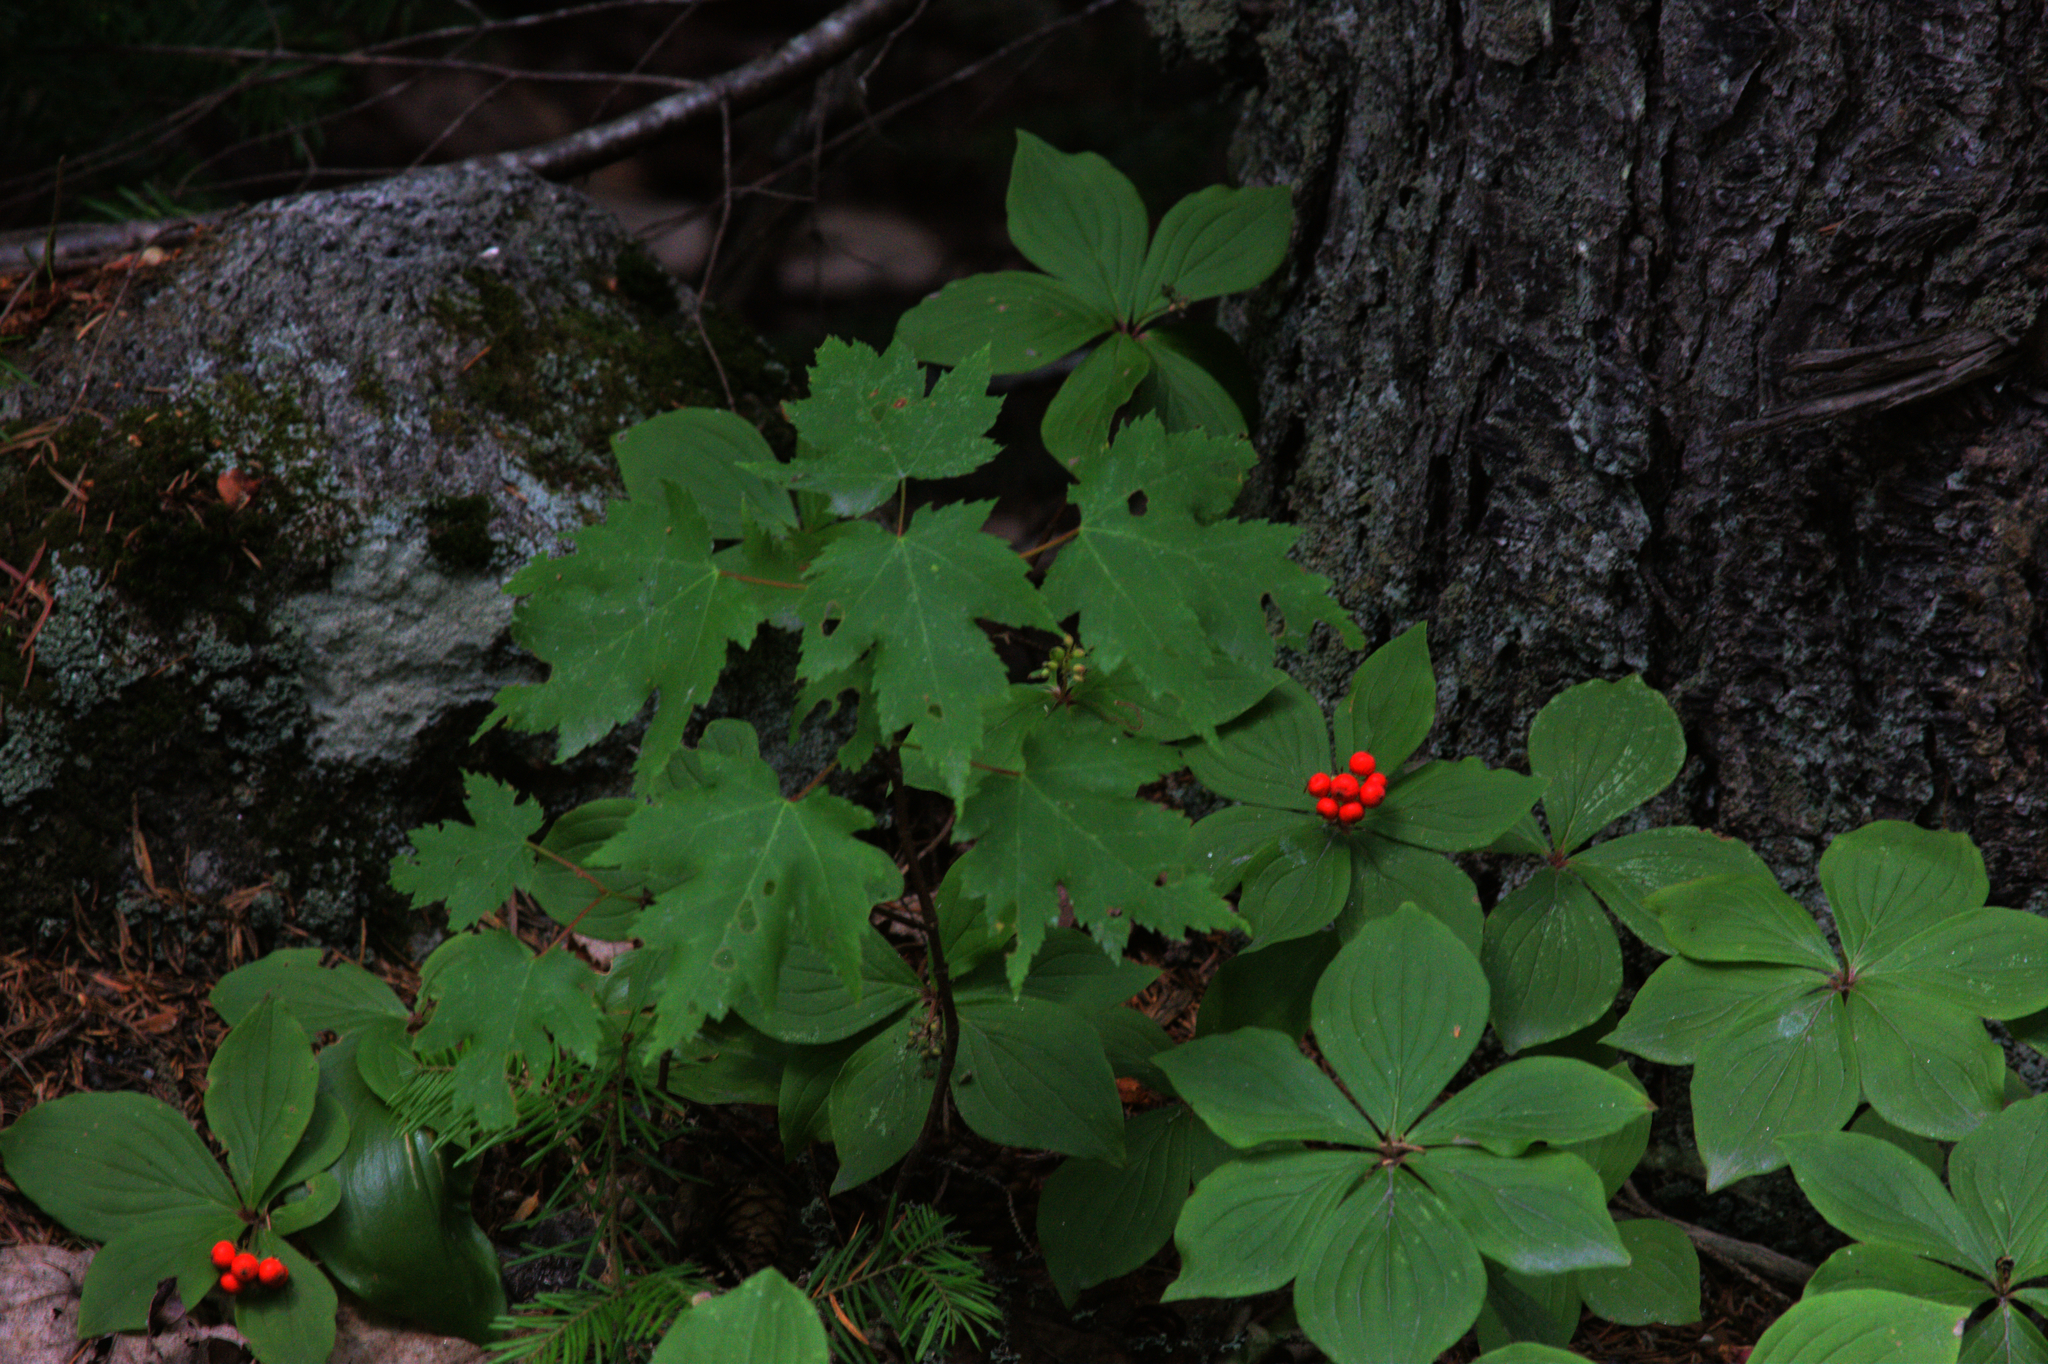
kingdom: Plantae
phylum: Tracheophyta
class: Magnoliopsida
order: Cornales
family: Cornaceae
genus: Cornus
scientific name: Cornus canadensis
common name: Creeping dogwood
